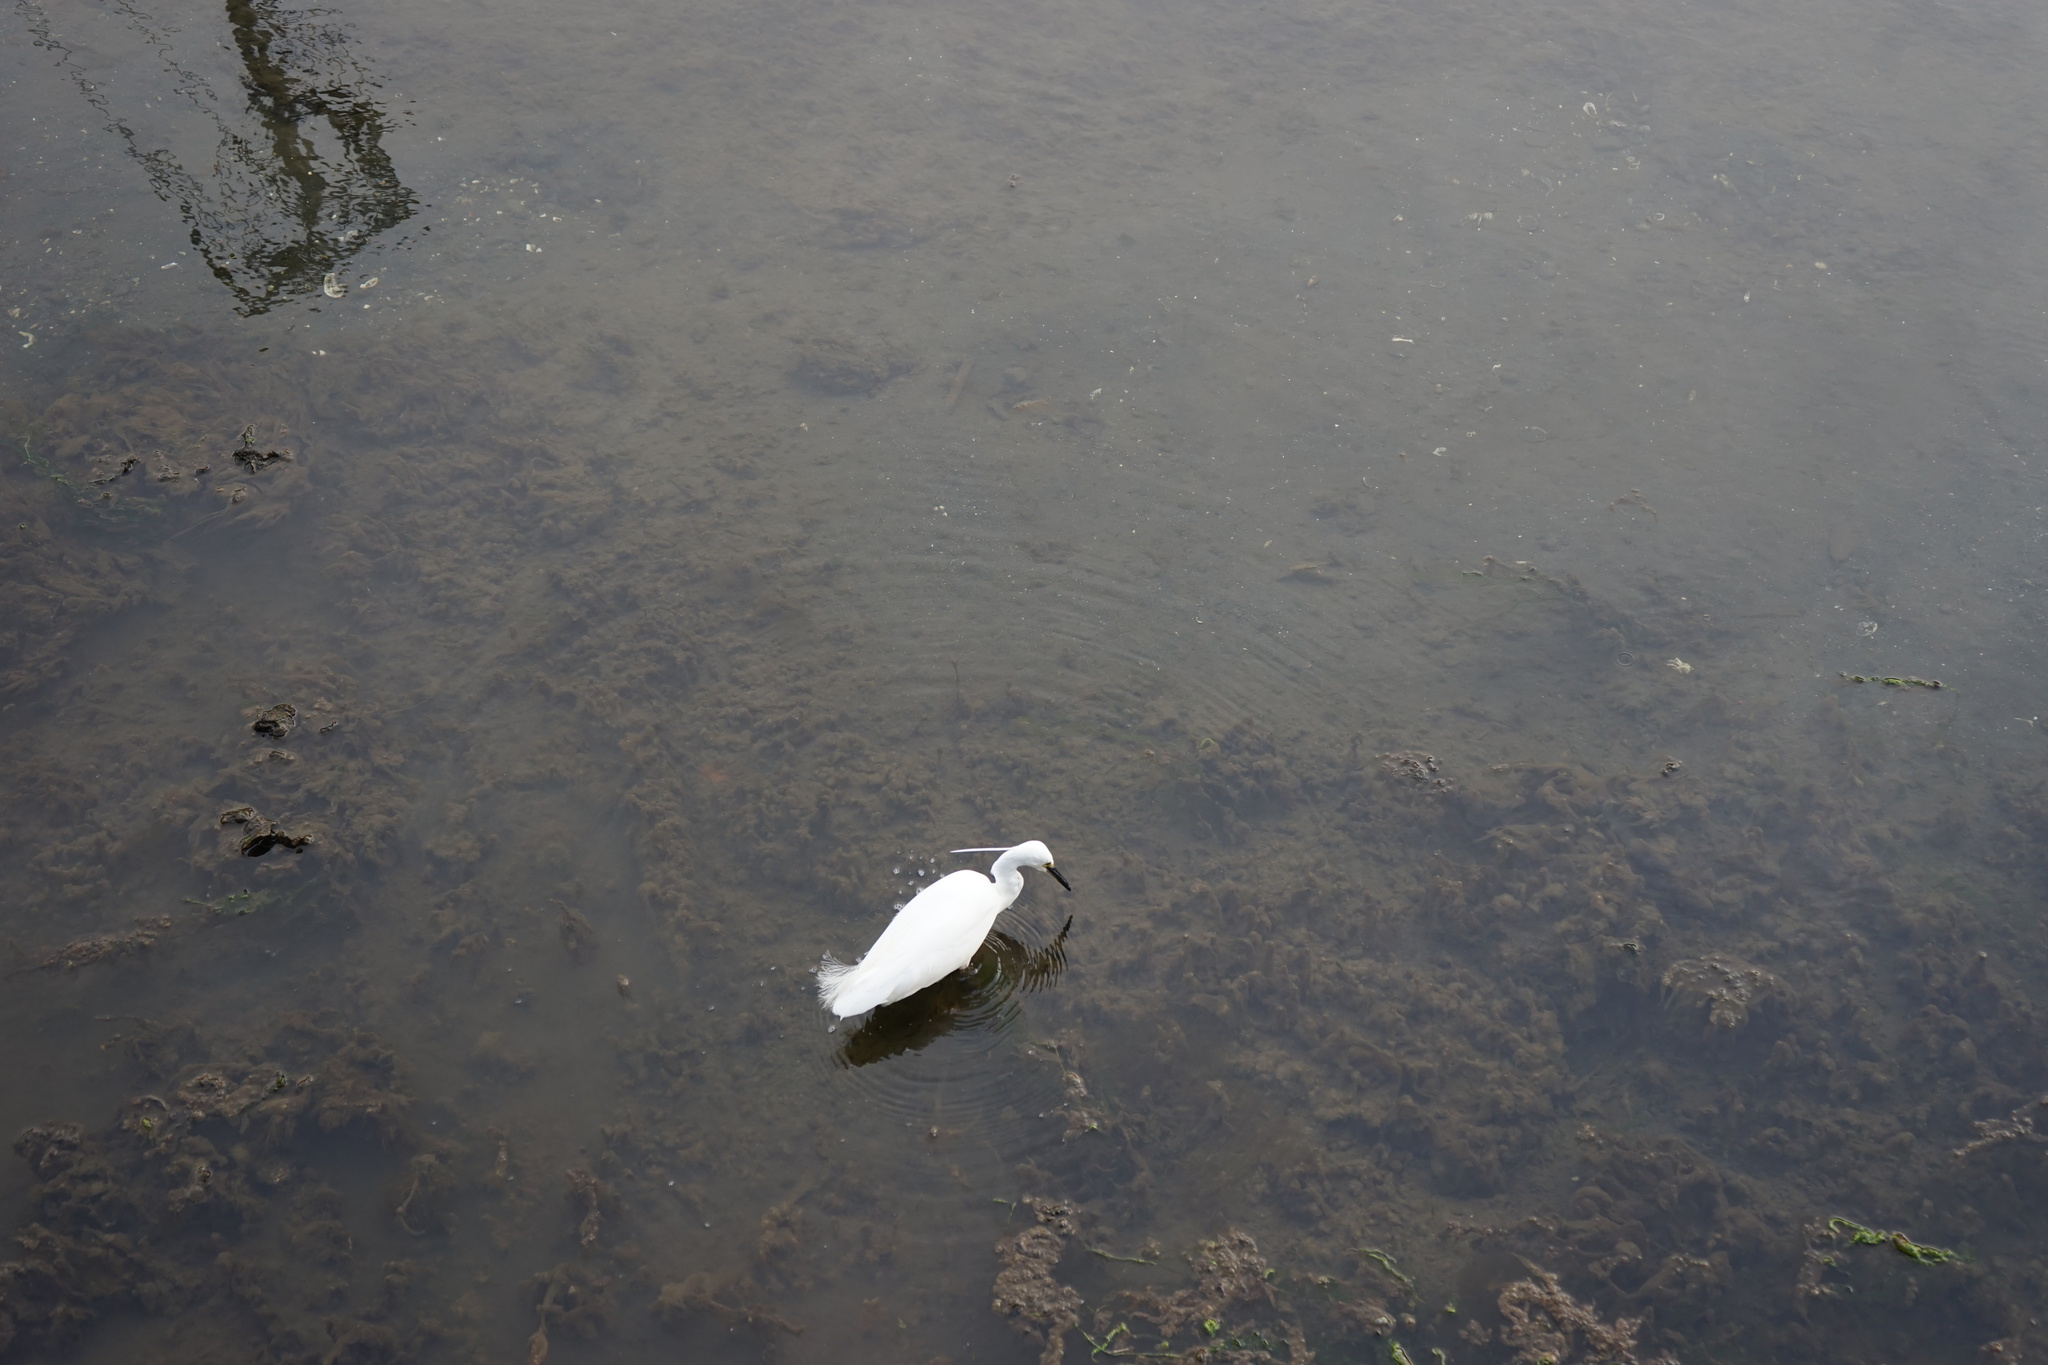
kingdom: Animalia
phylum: Chordata
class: Aves
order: Pelecaniformes
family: Ardeidae
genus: Egretta
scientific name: Egretta garzetta
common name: Little egret
